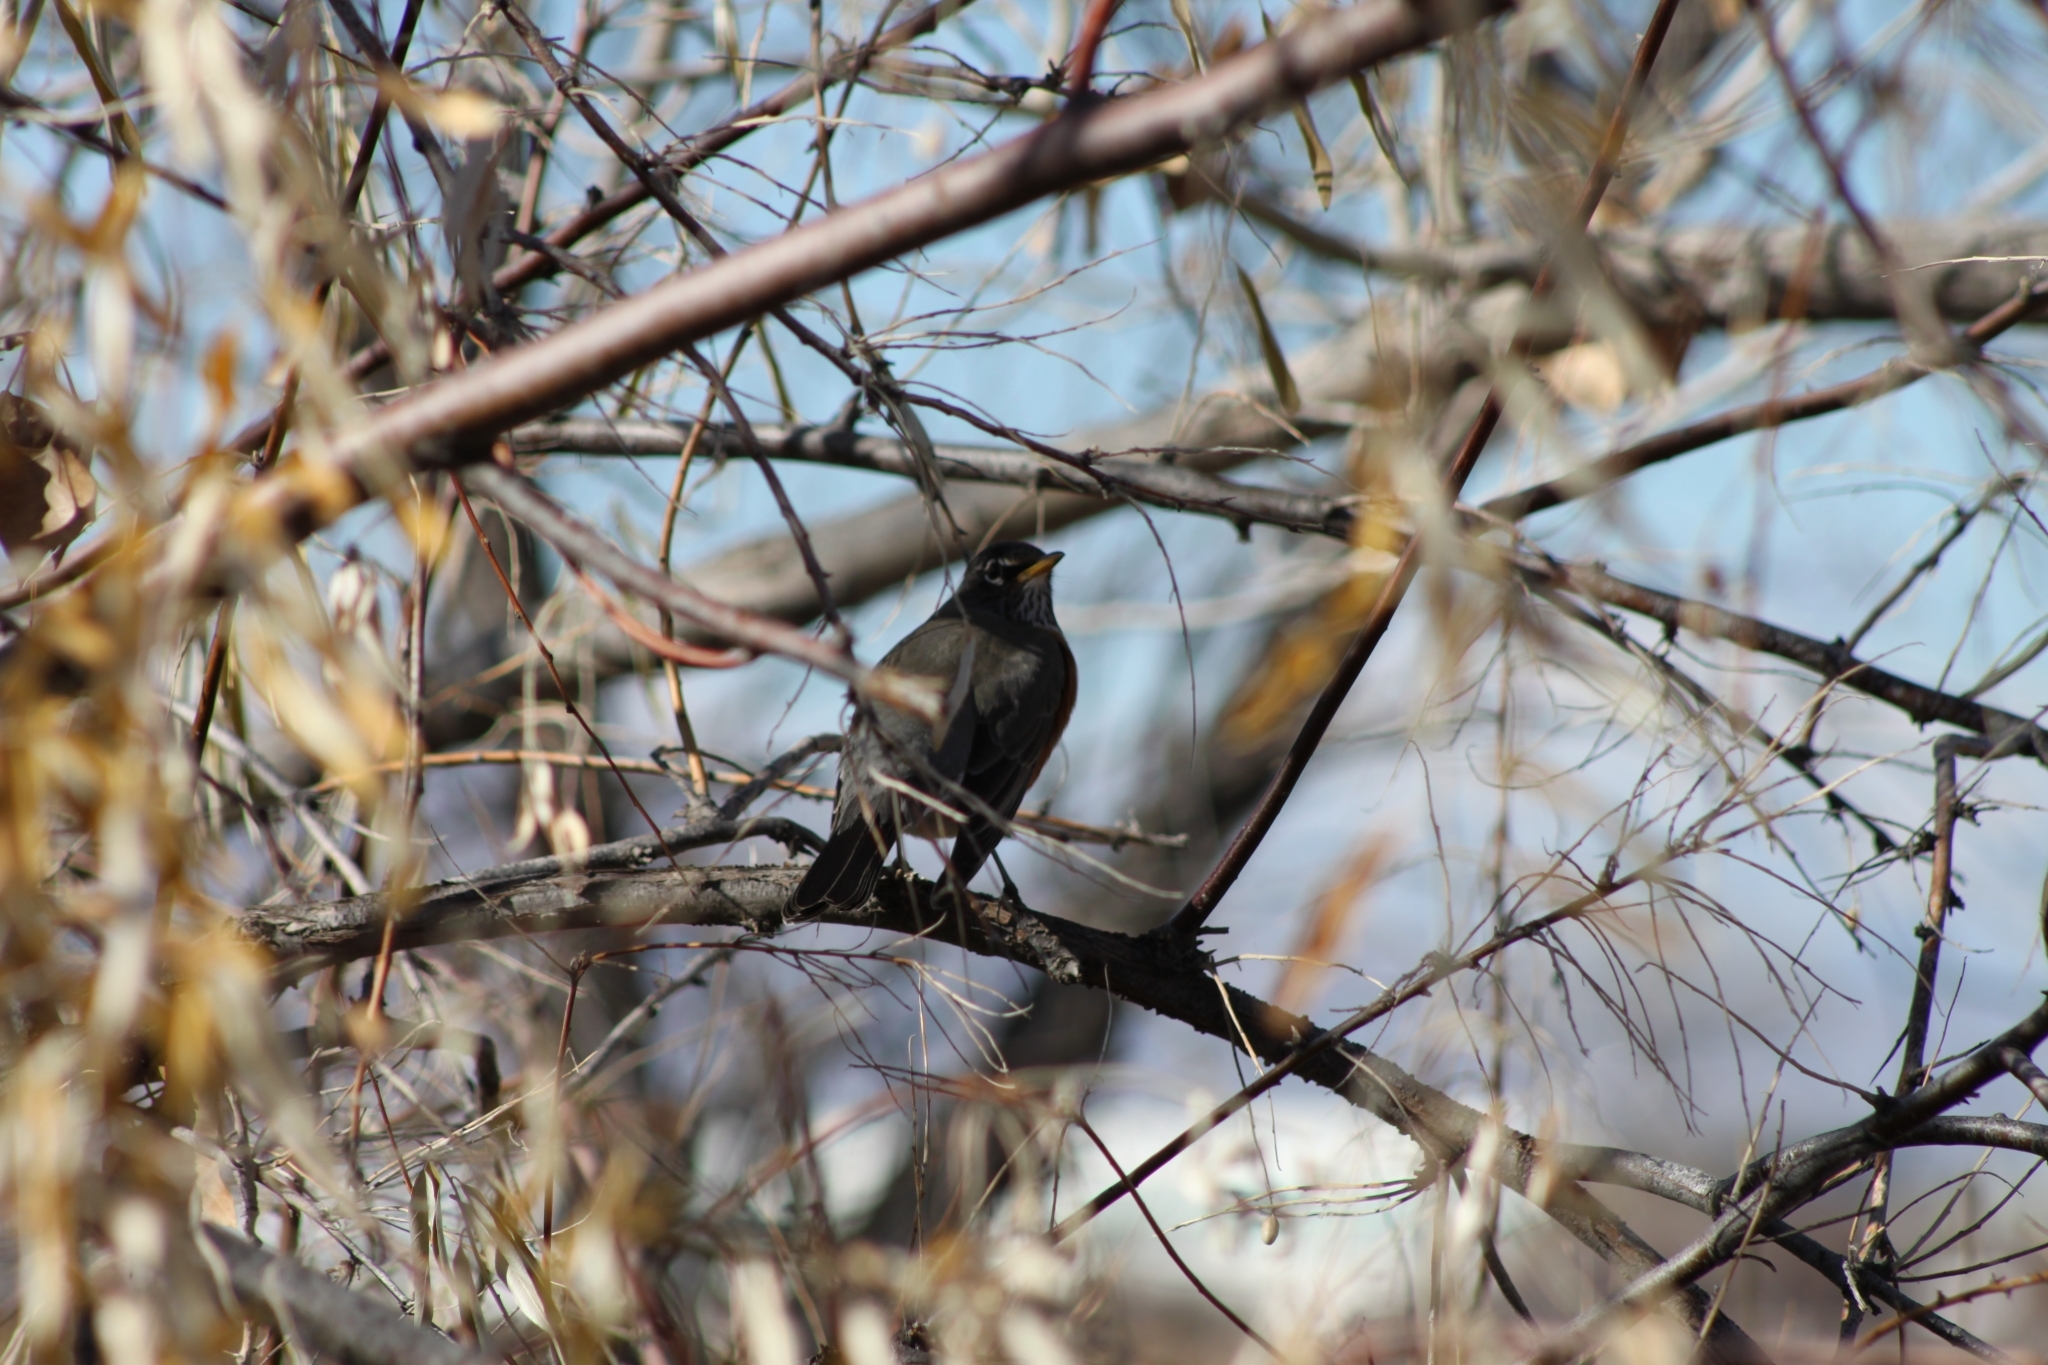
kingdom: Animalia
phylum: Chordata
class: Aves
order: Passeriformes
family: Turdidae
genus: Turdus
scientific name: Turdus migratorius
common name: American robin
